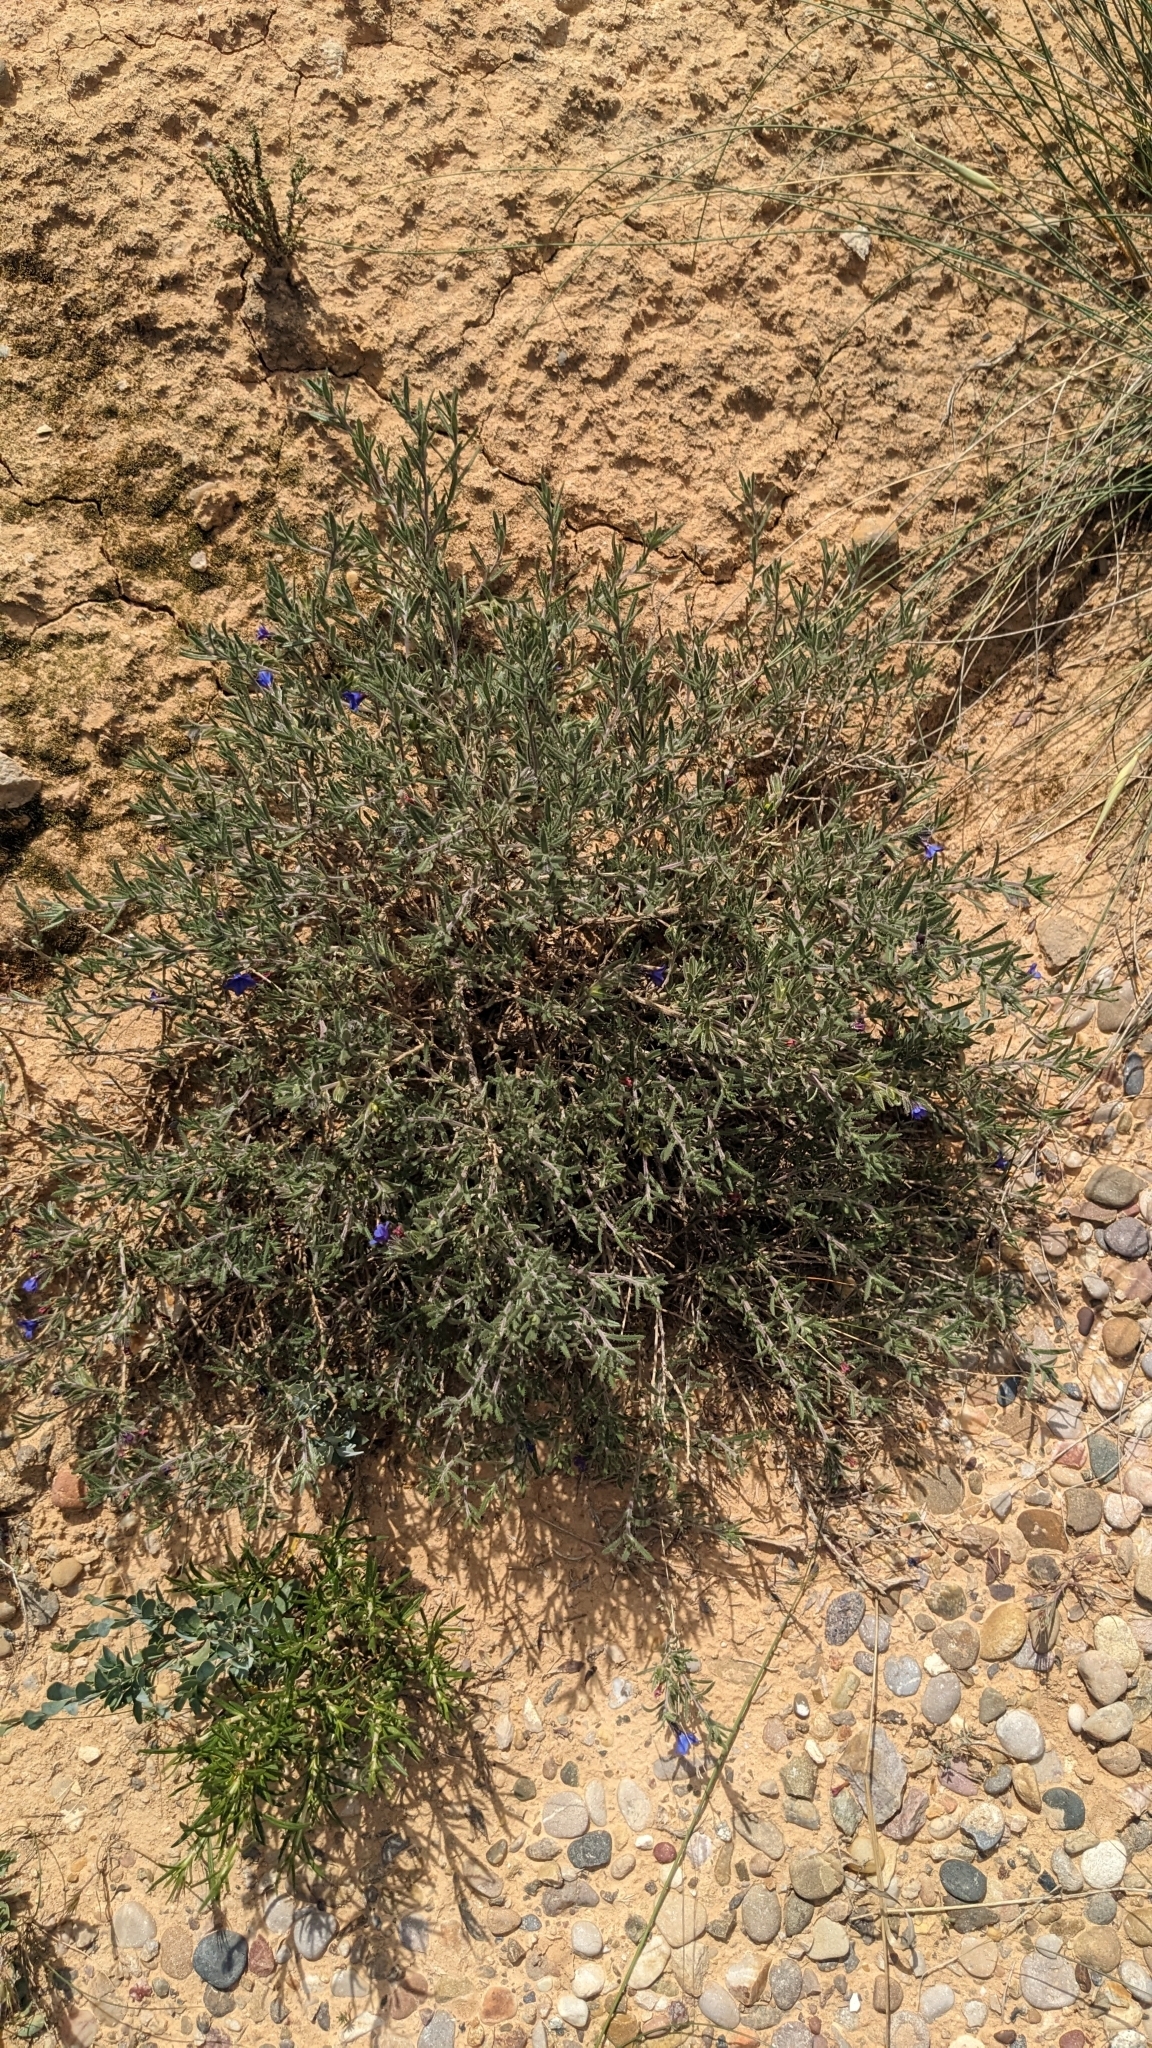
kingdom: Plantae
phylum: Tracheophyta
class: Magnoliopsida
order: Boraginales
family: Boraginaceae
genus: Lithodora
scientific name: Lithodora fruticosa
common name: Shrubby gromwell
